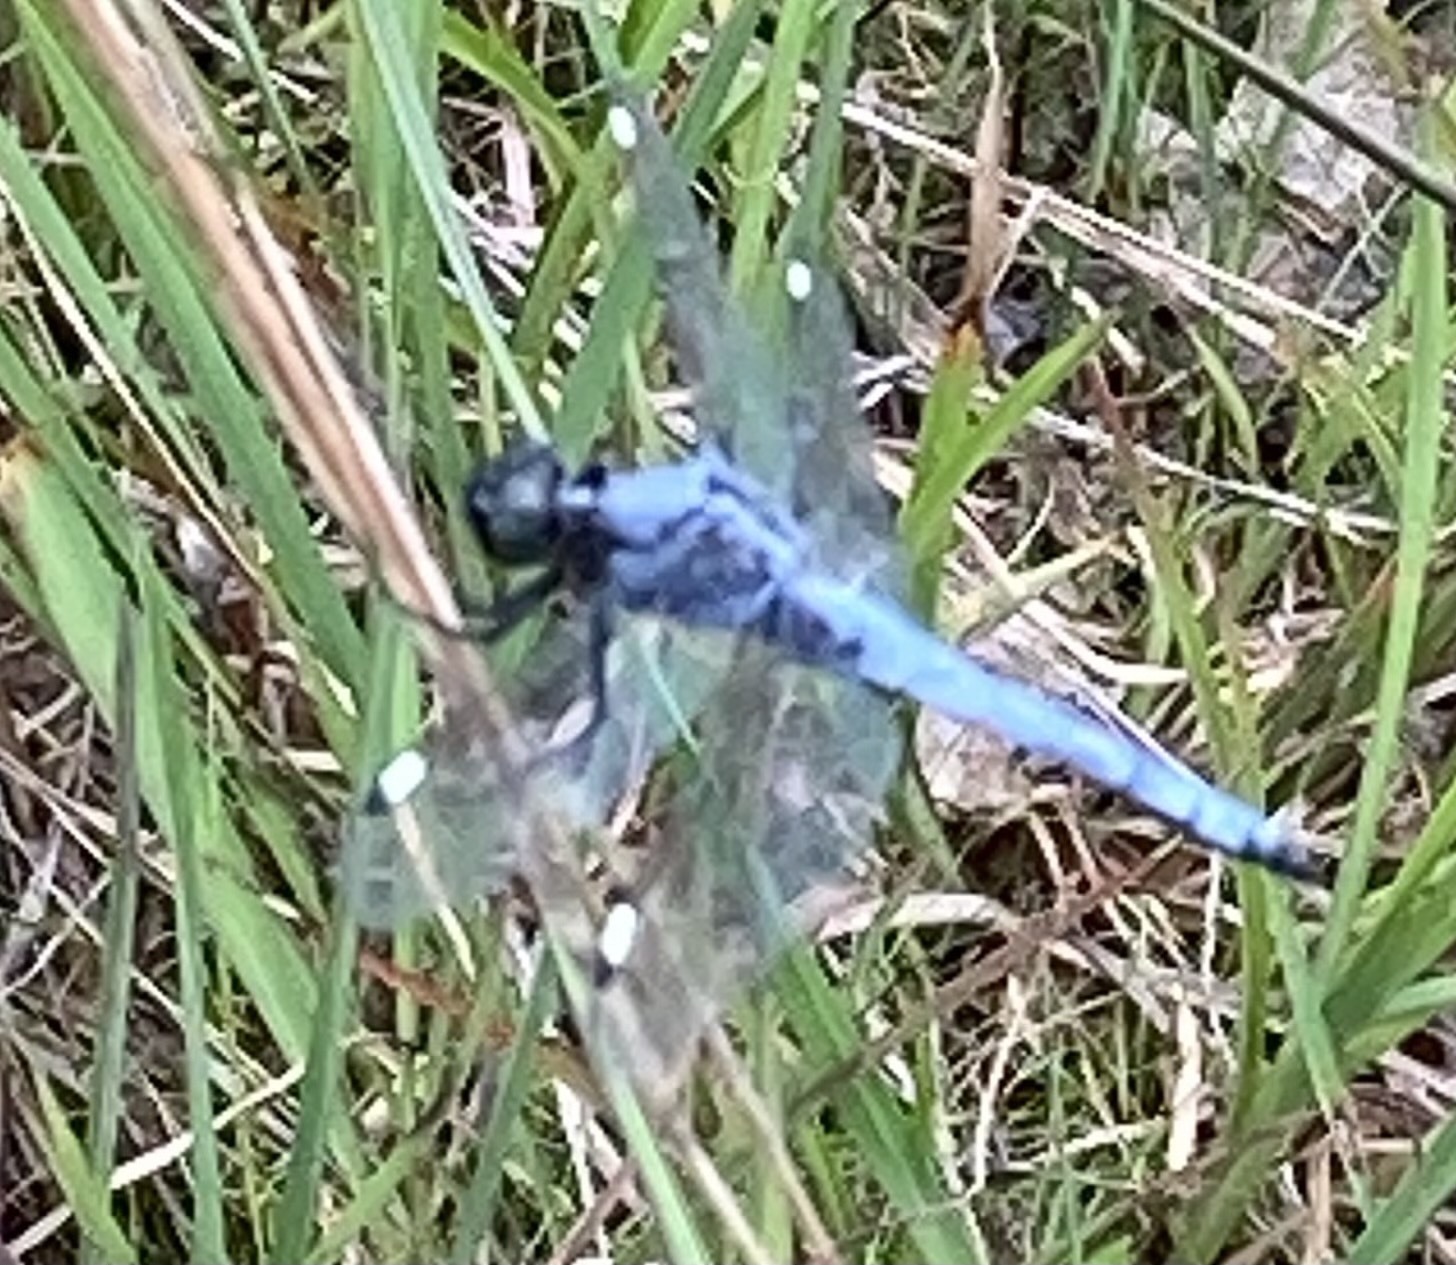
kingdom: Animalia
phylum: Arthropoda
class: Insecta
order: Odonata
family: Libellulidae
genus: Libellula
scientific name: Libellula cyanea
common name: Spangled skimmer
